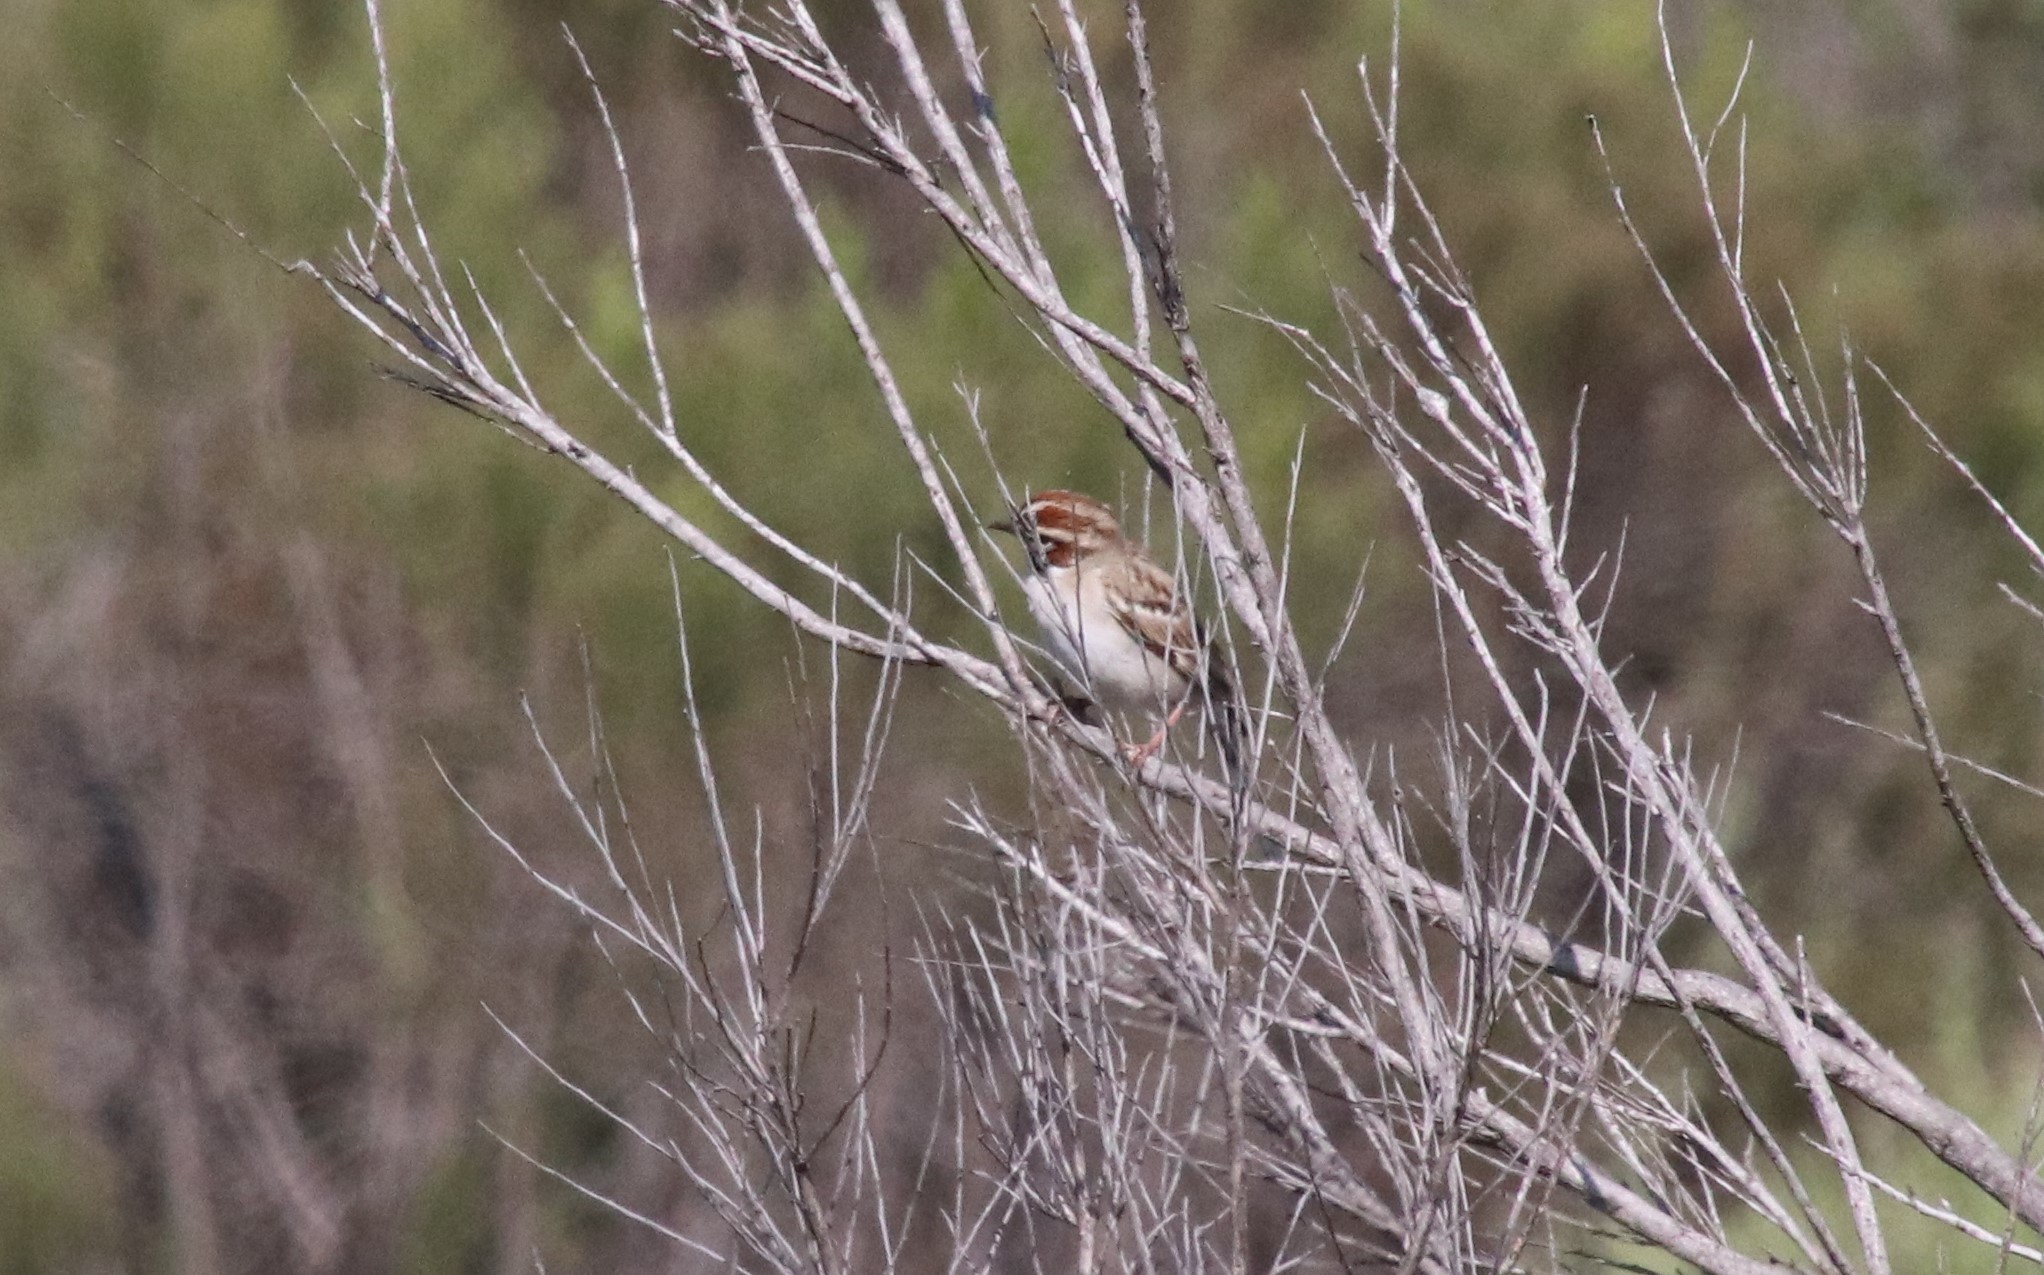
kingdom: Animalia
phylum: Chordata
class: Aves
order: Passeriformes
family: Passerellidae
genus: Chondestes
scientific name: Chondestes grammacus
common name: Lark sparrow
